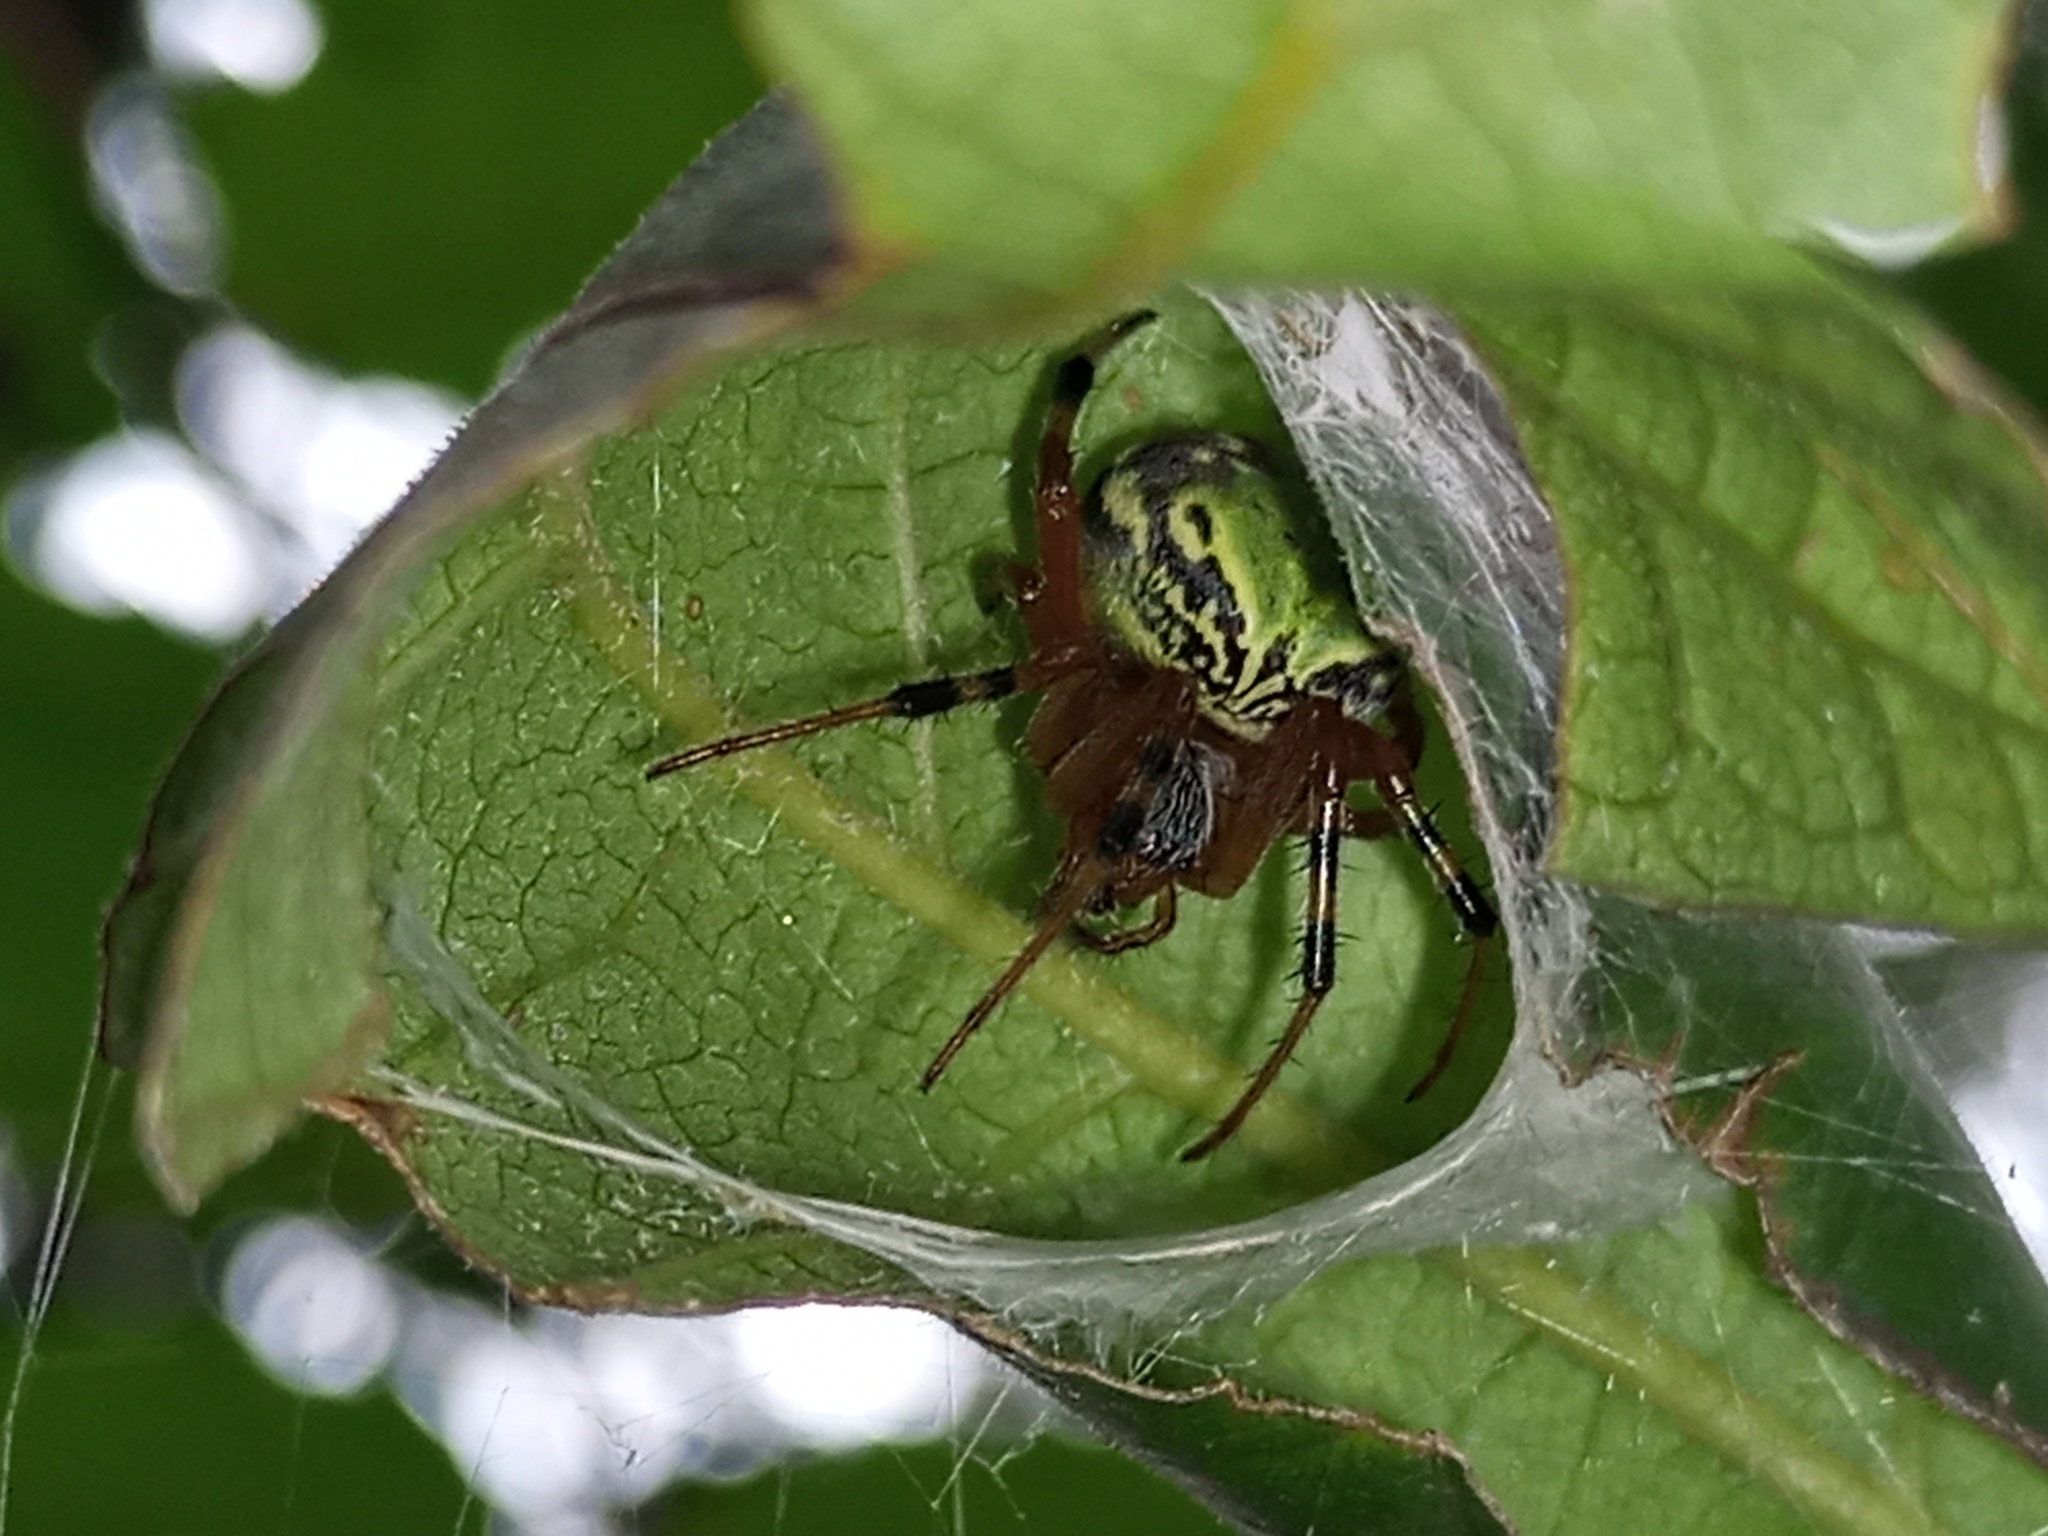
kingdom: Animalia
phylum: Arthropoda
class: Arachnida
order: Araneae
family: Araneidae
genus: Araneus
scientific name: Araneus workmani
